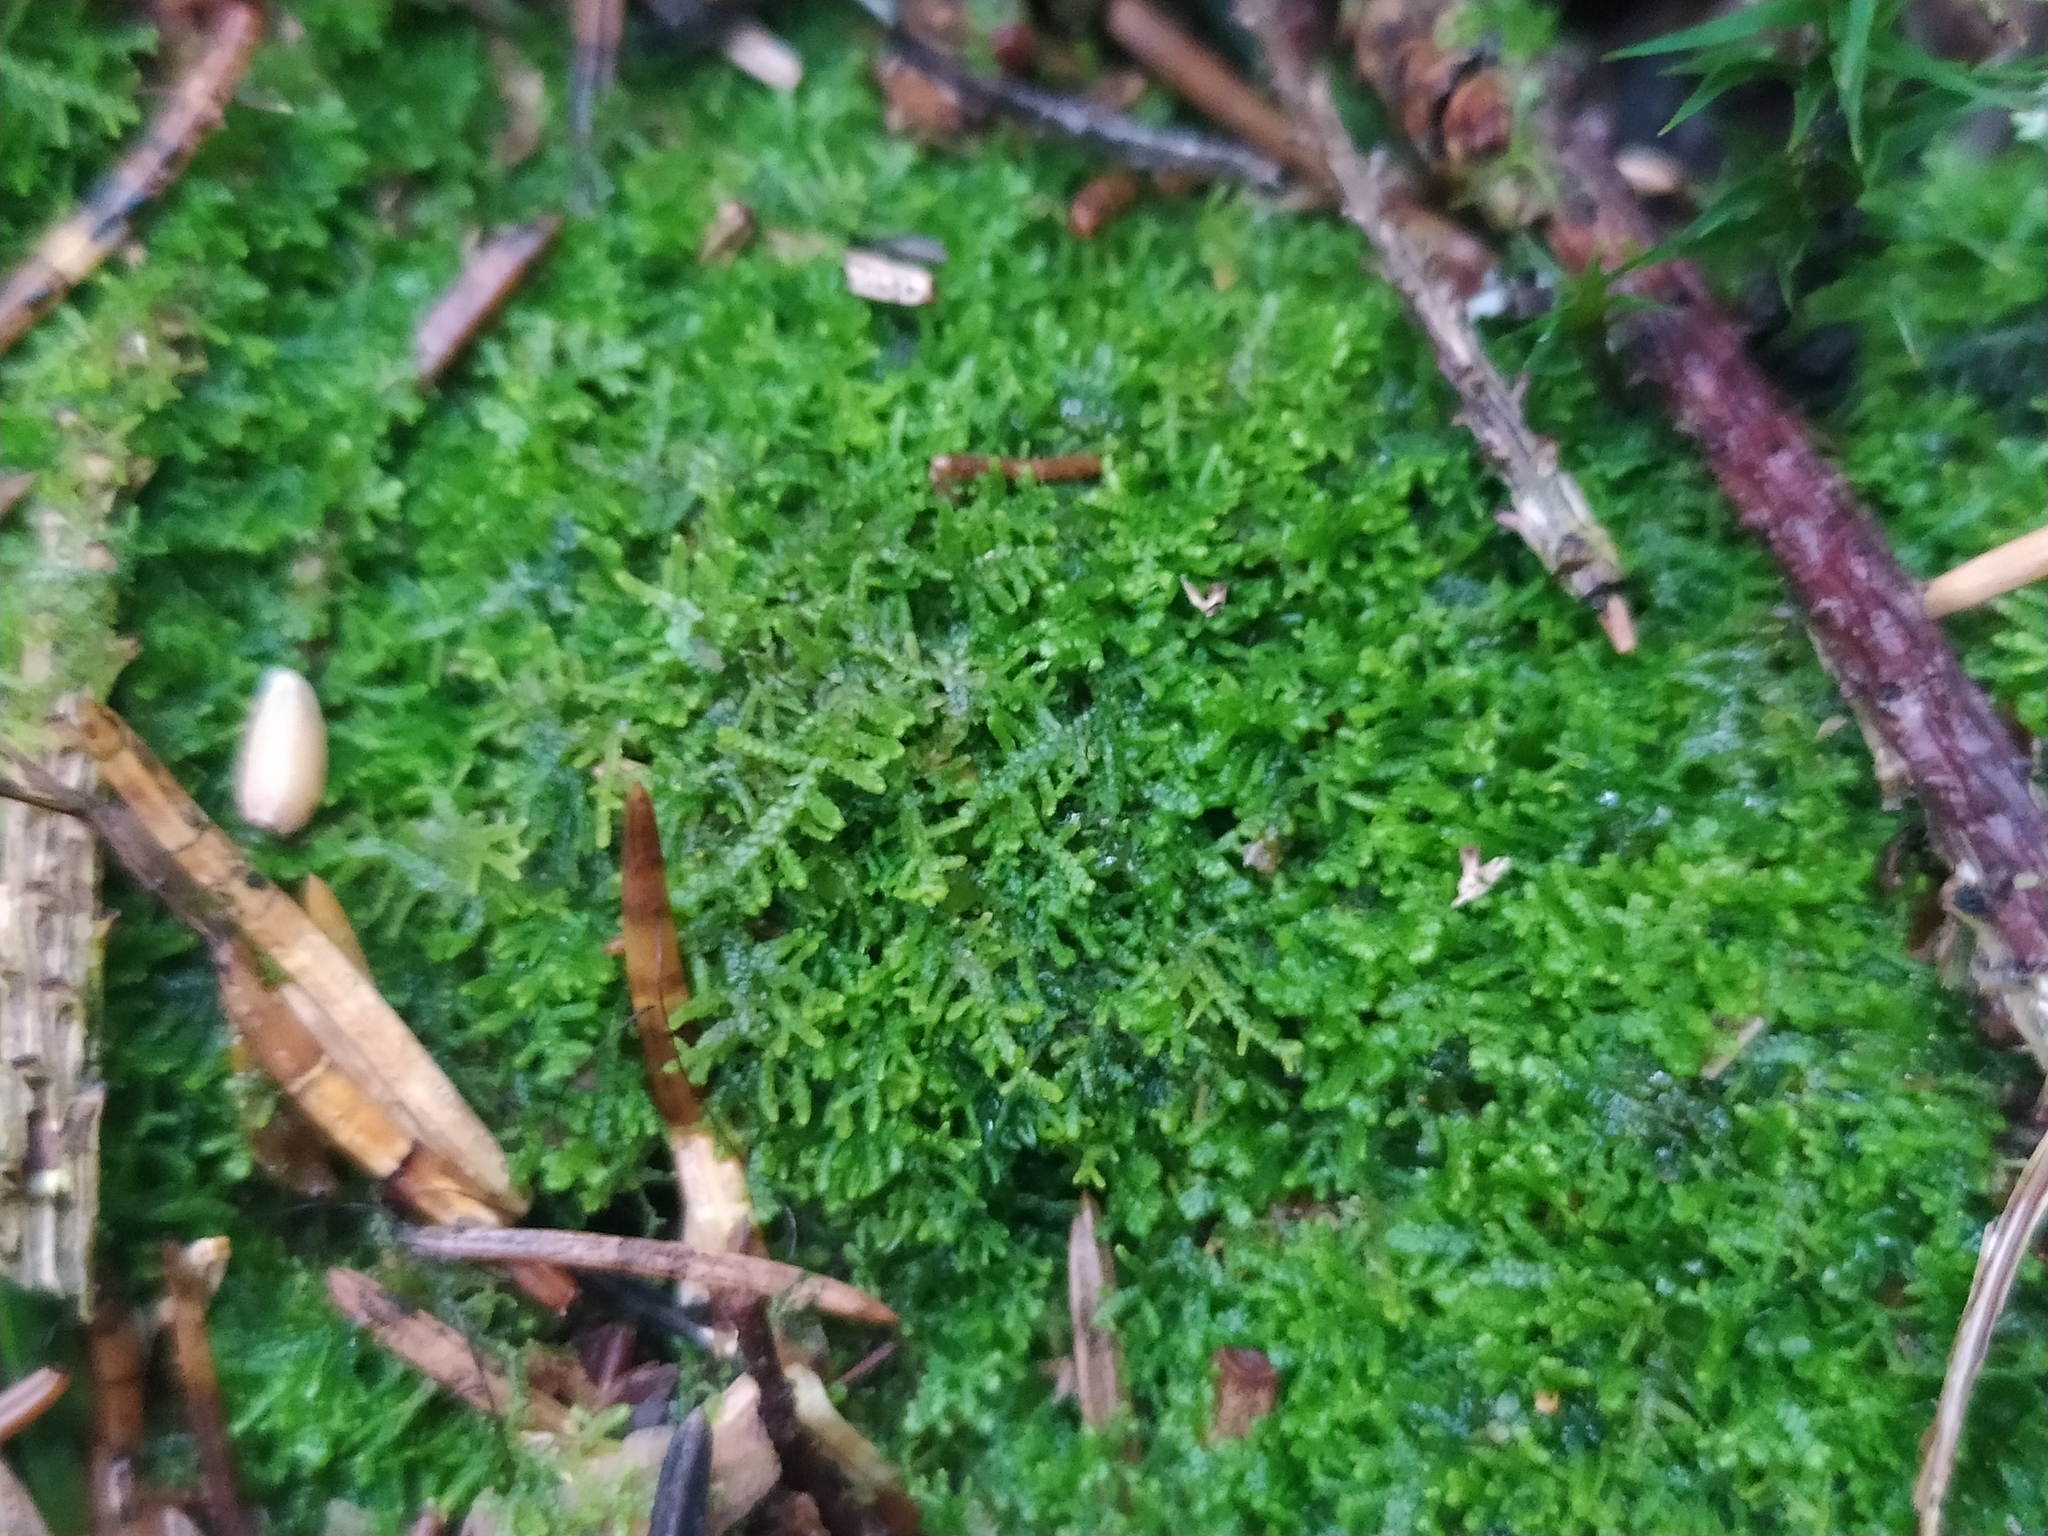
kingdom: Plantae
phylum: Marchantiophyta
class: Jungermanniopsida
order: Jungermanniales
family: Lepidoziaceae
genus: Lepidozia
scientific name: Lepidozia reptans
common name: Creeping fingerwort
